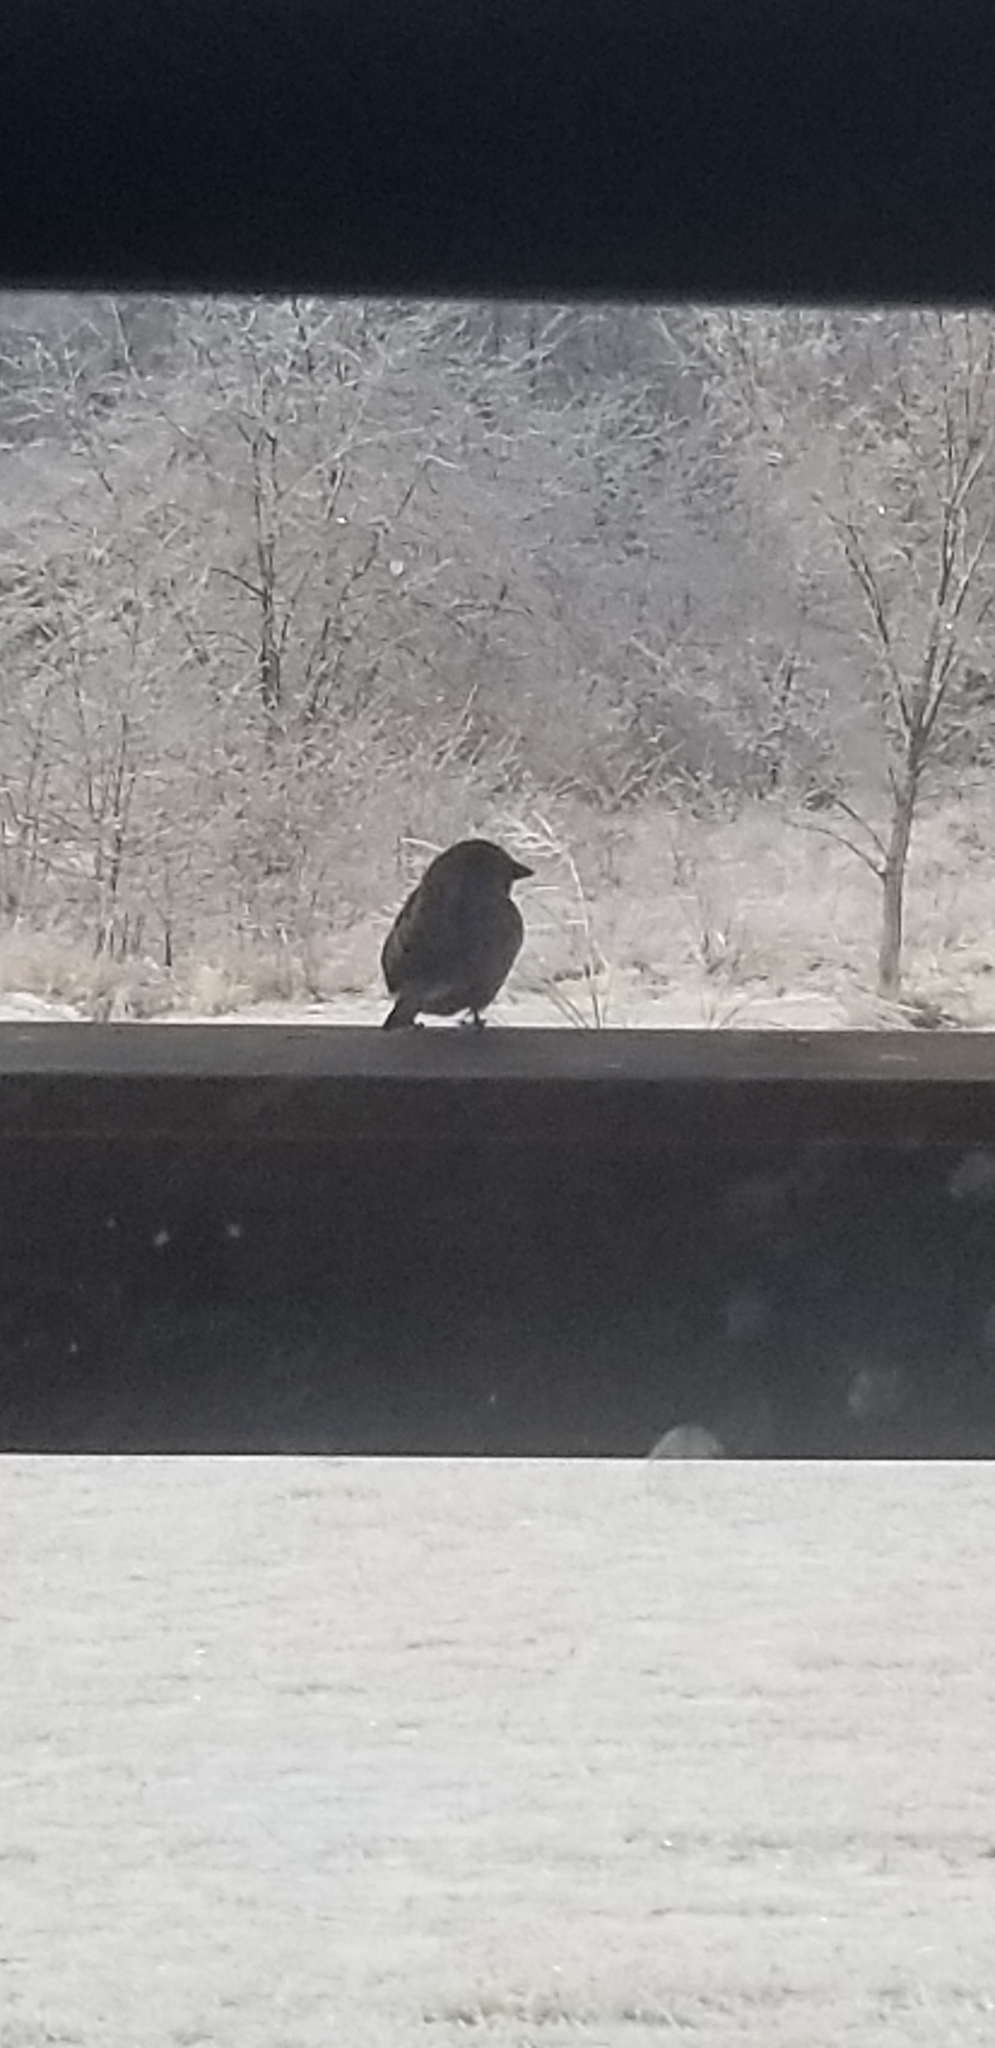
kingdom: Animalia
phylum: Chordata
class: Aves
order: Passeriformes
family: Passeridae
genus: Passer
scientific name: Passer domesticus
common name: House sparrow
